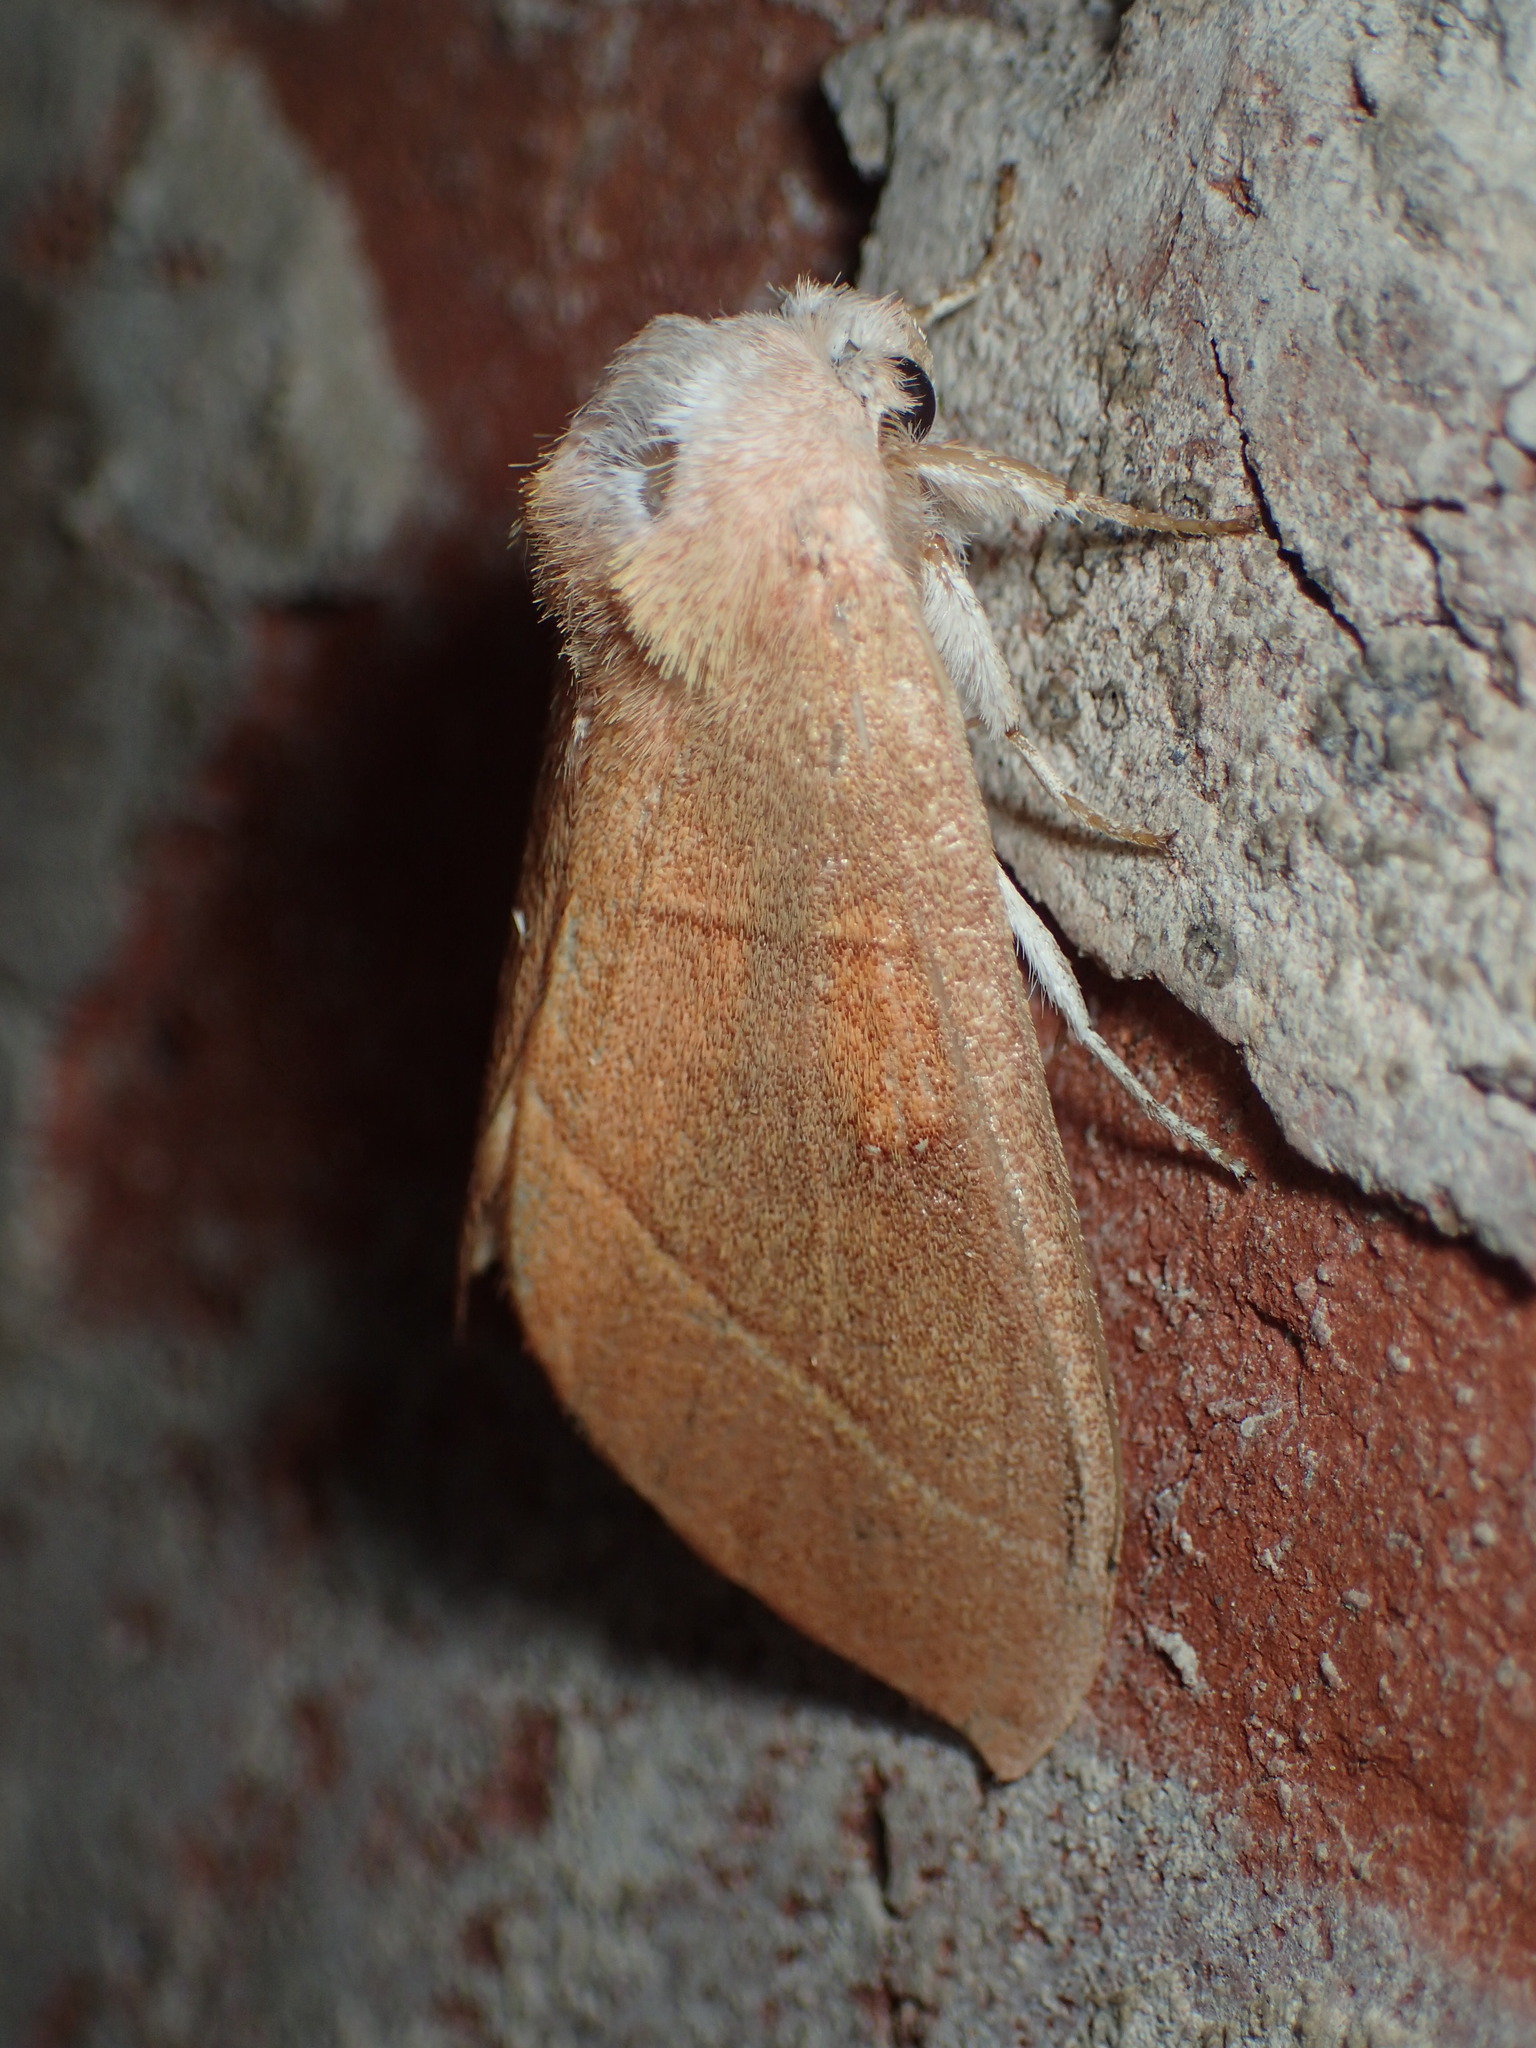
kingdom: Animalia
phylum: Arthropoda
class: Insecta
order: Lepidoptera
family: Notodontidae
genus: Nadata
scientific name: Nadata gibbosa
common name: White-dotted prominent
